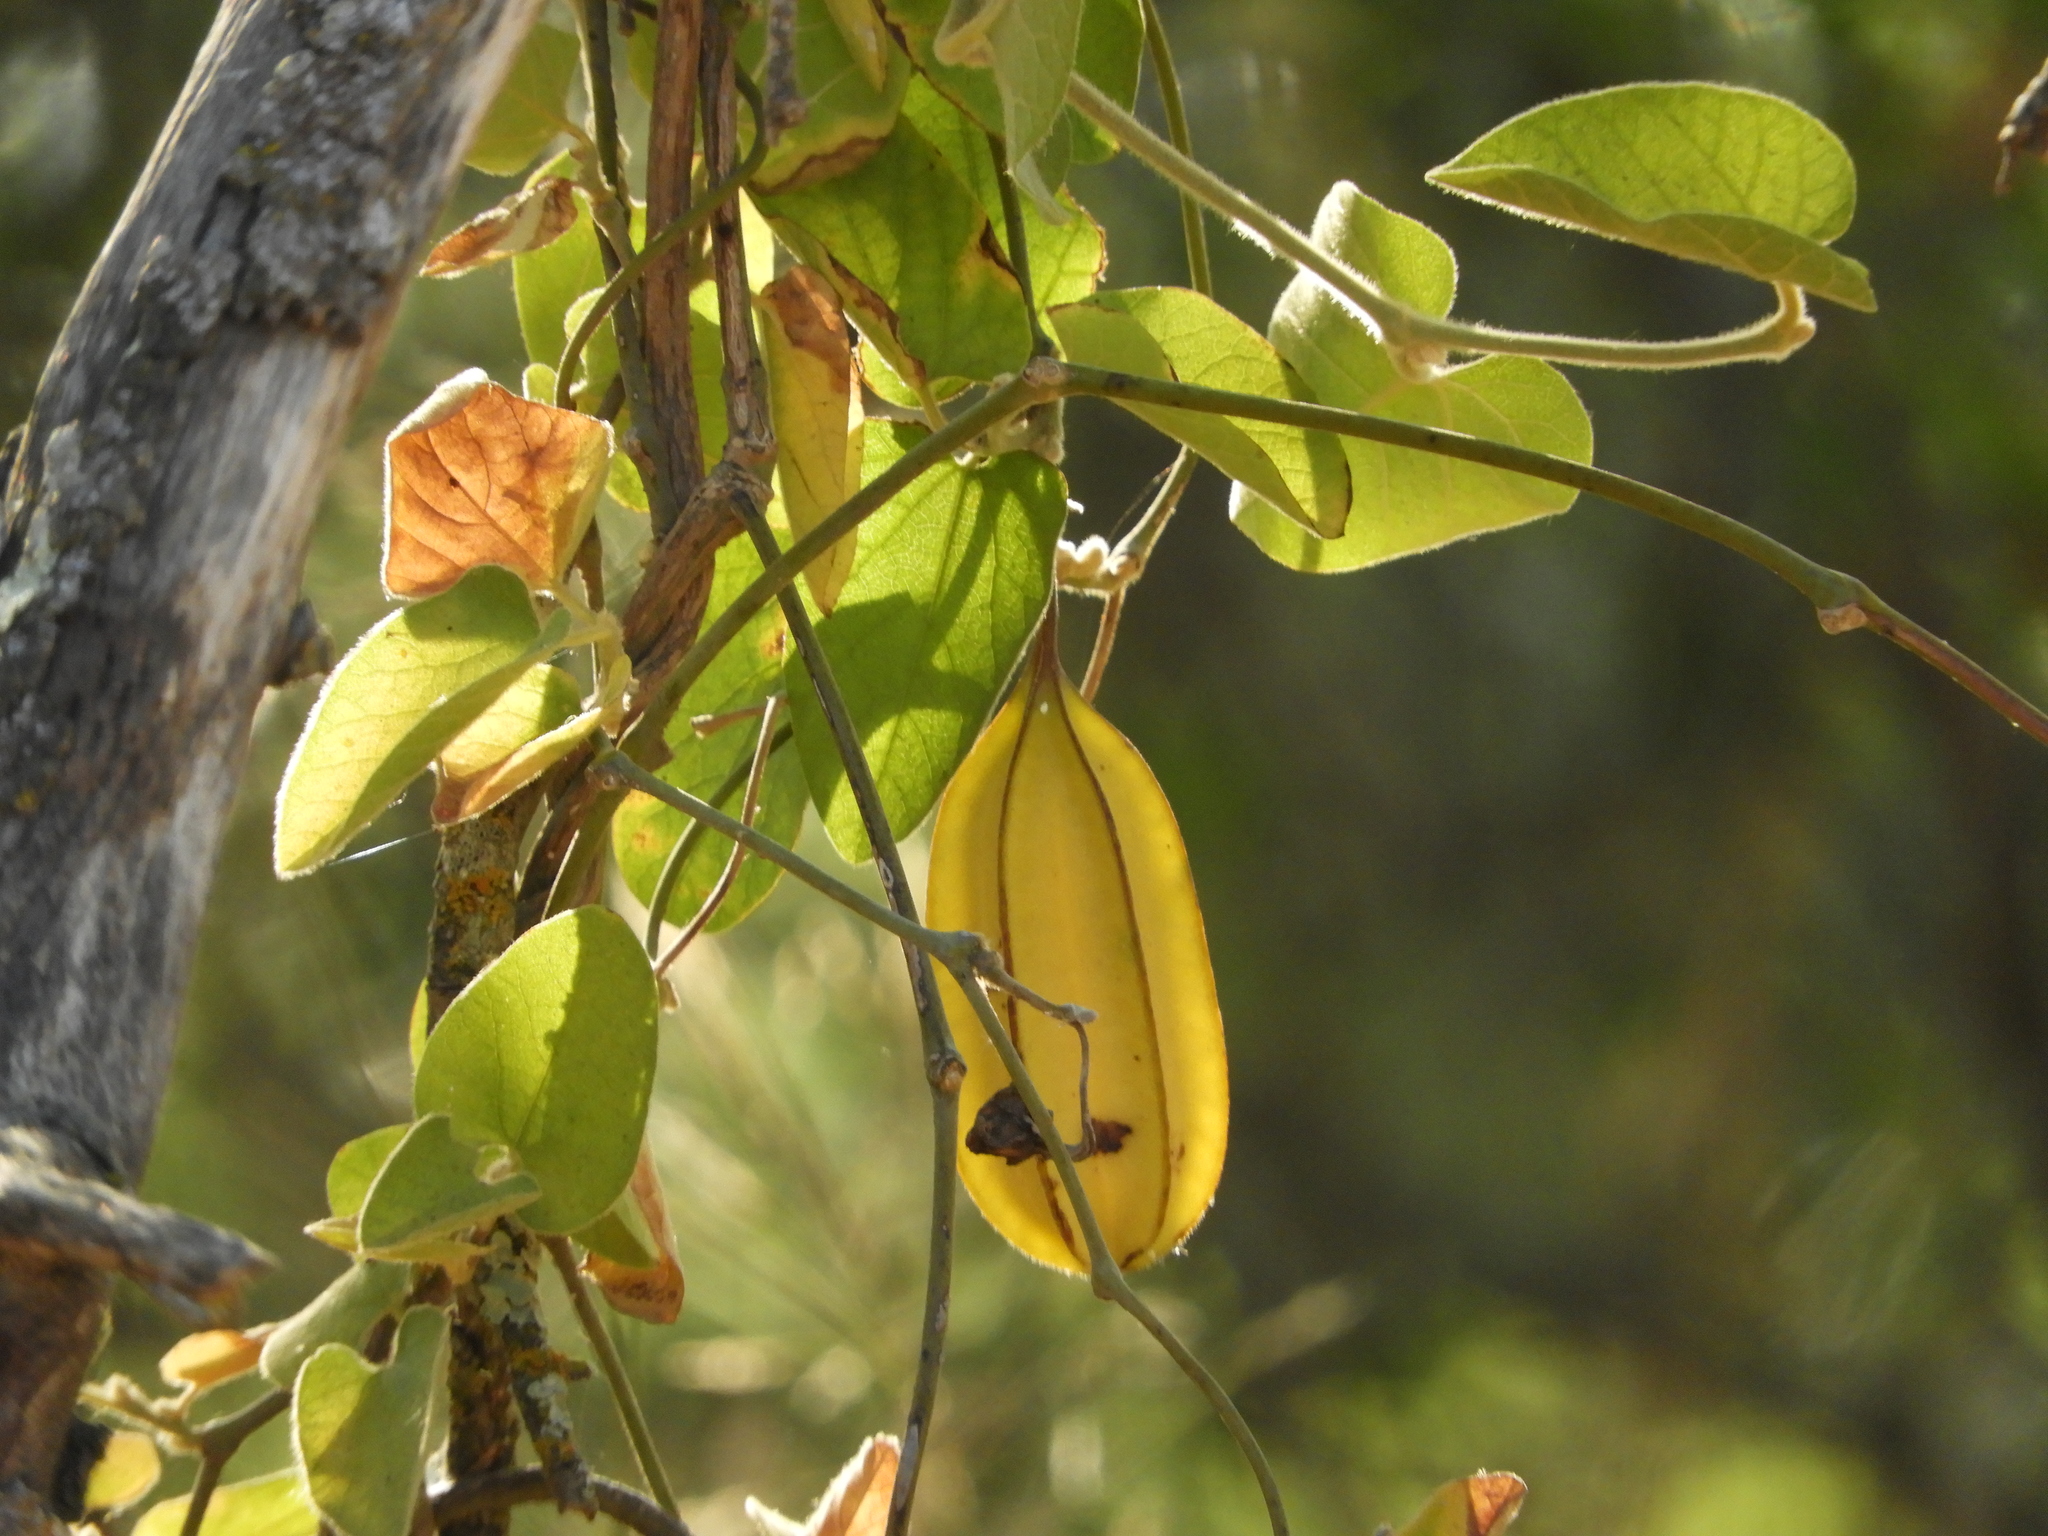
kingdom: Plantae
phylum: Tracheophyta
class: Magnoliopsida
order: Piperales
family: Aristolochiaceae
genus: Isotrema
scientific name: Isotrema californicum
